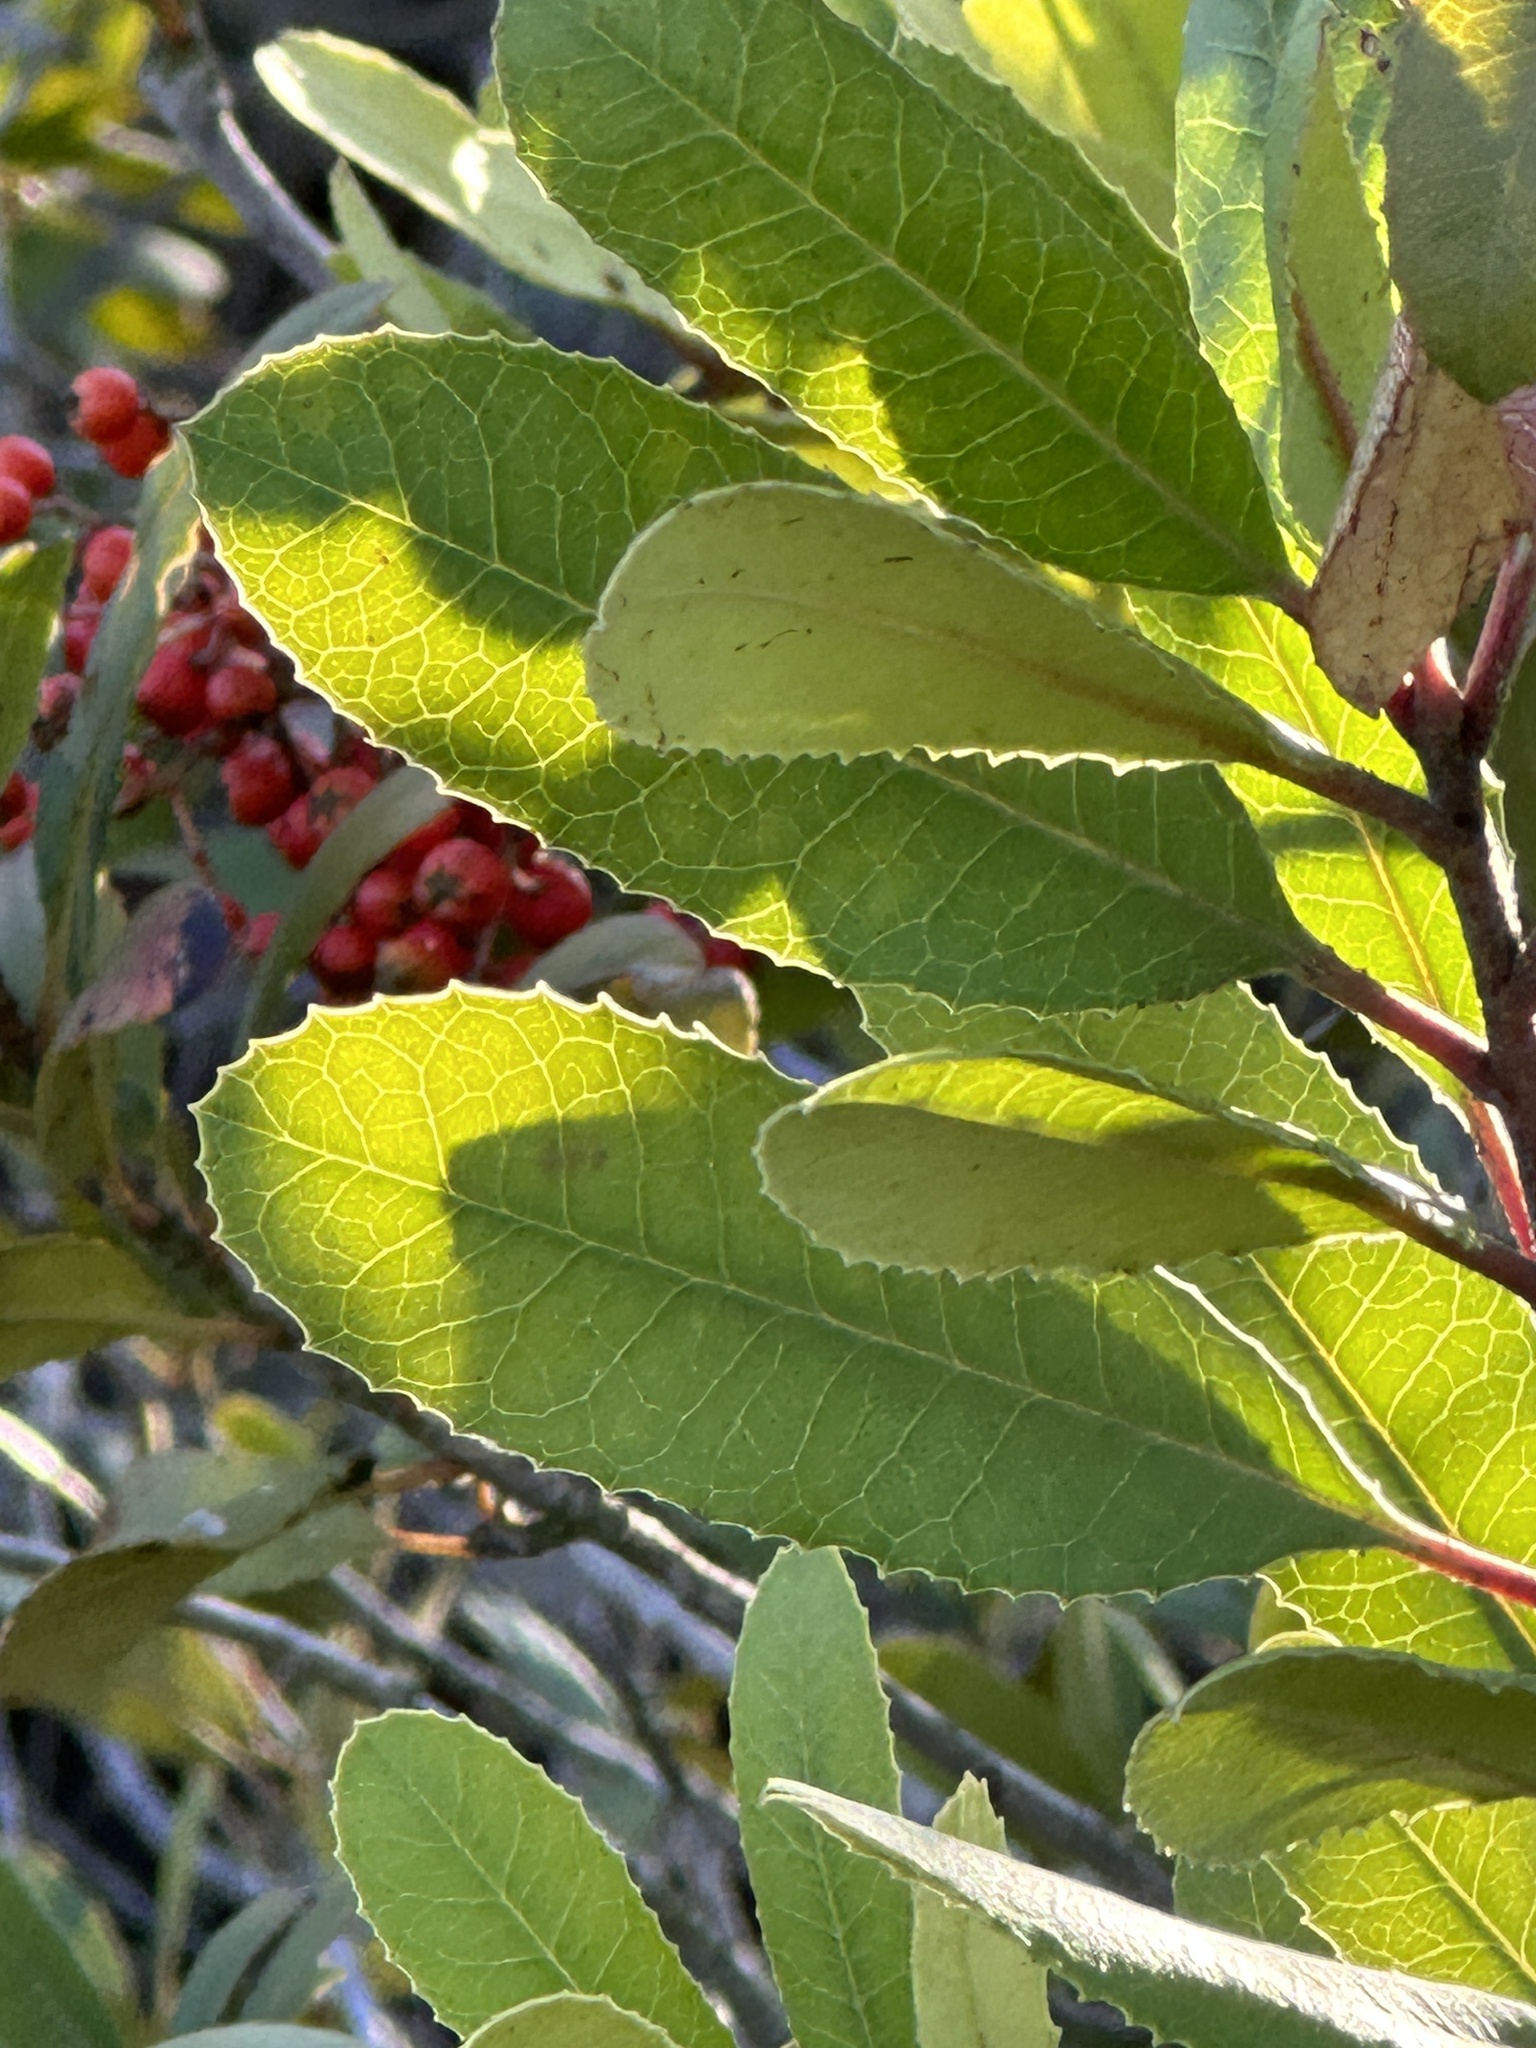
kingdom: Plantae
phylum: Tracheophyta
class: Magnoliopsida
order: Rosales
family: Rosaceae
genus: Heteromeles
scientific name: Heteromeles arbutifolia
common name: California-holly
